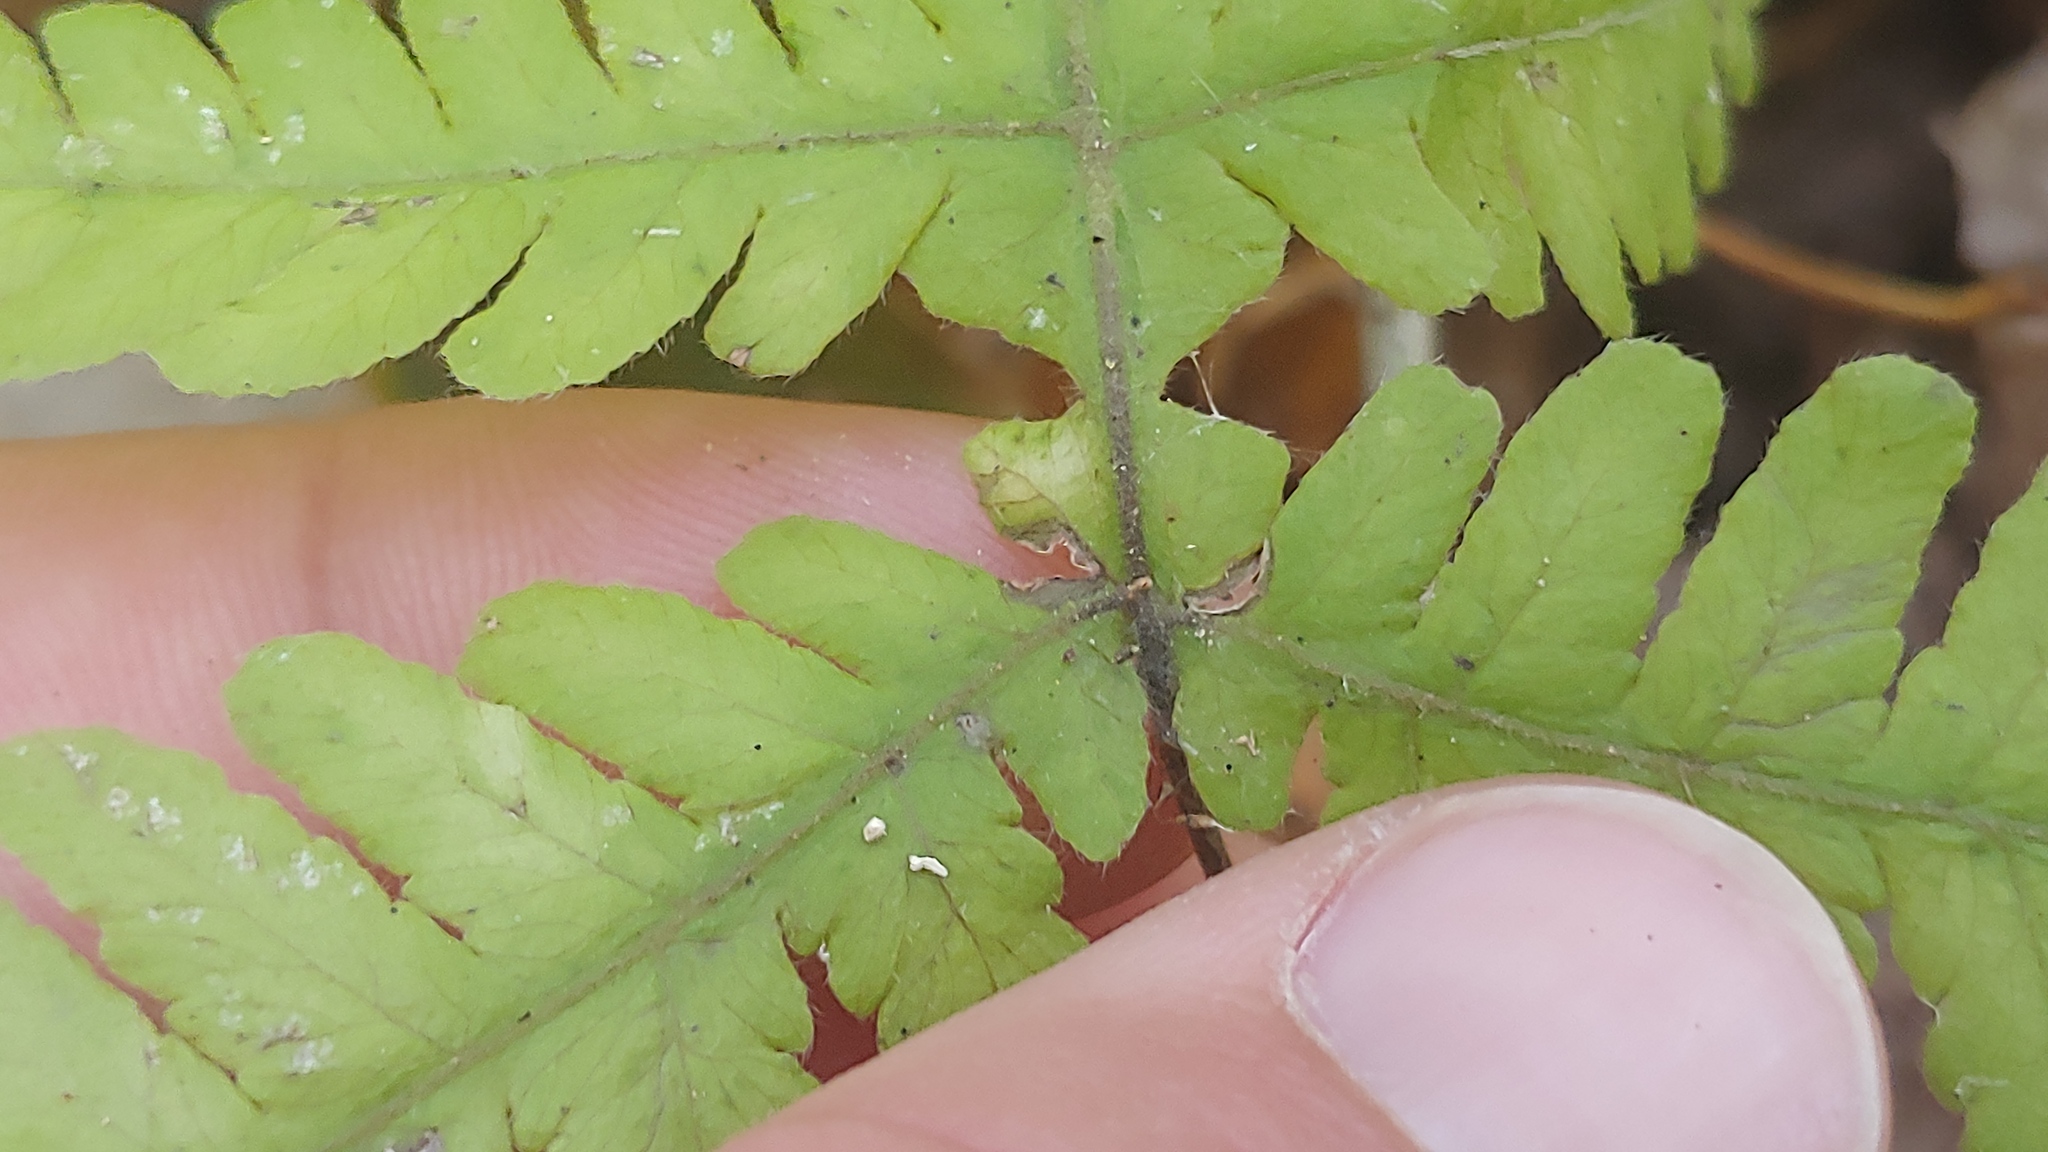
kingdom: Plantae
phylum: Tracheophyta
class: Polypodiopsida
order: Polypodiales
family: Thelypteridaceae
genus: Phegopteris
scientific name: Phegopteris hexagonoptera
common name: Broad beech fern
